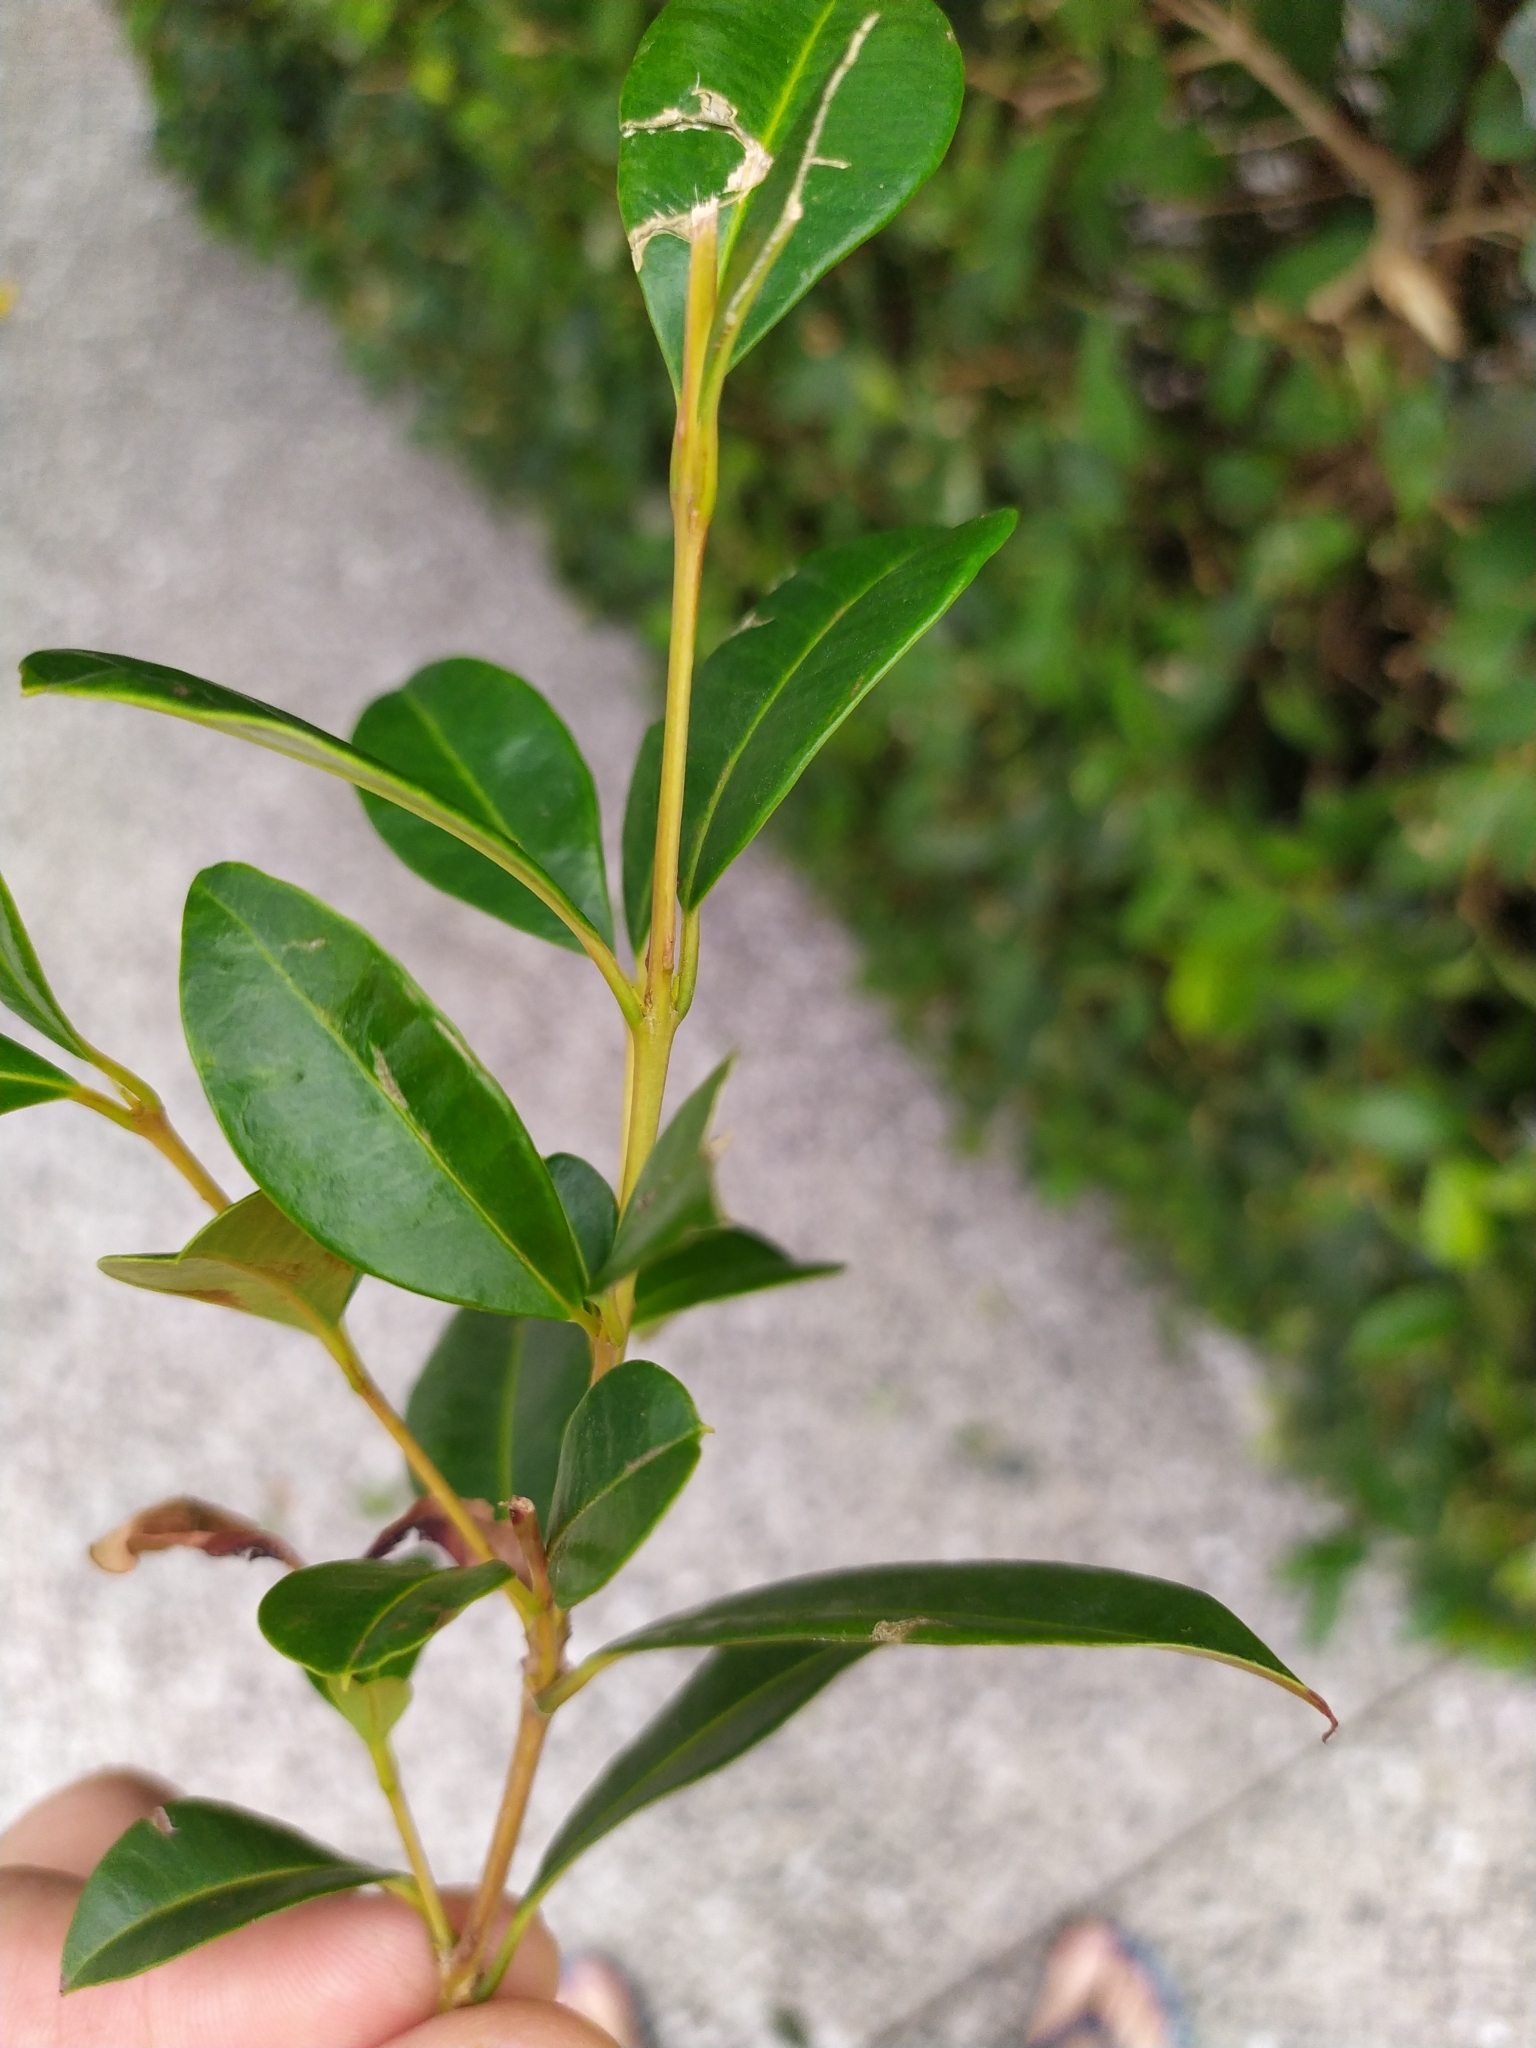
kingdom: Plantae
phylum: Tracheophyta
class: Magnoliopsida
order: Myrtales
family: Myrtaceae
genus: Syzygium
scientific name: Syzygium australe
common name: Australian brush-cherry
